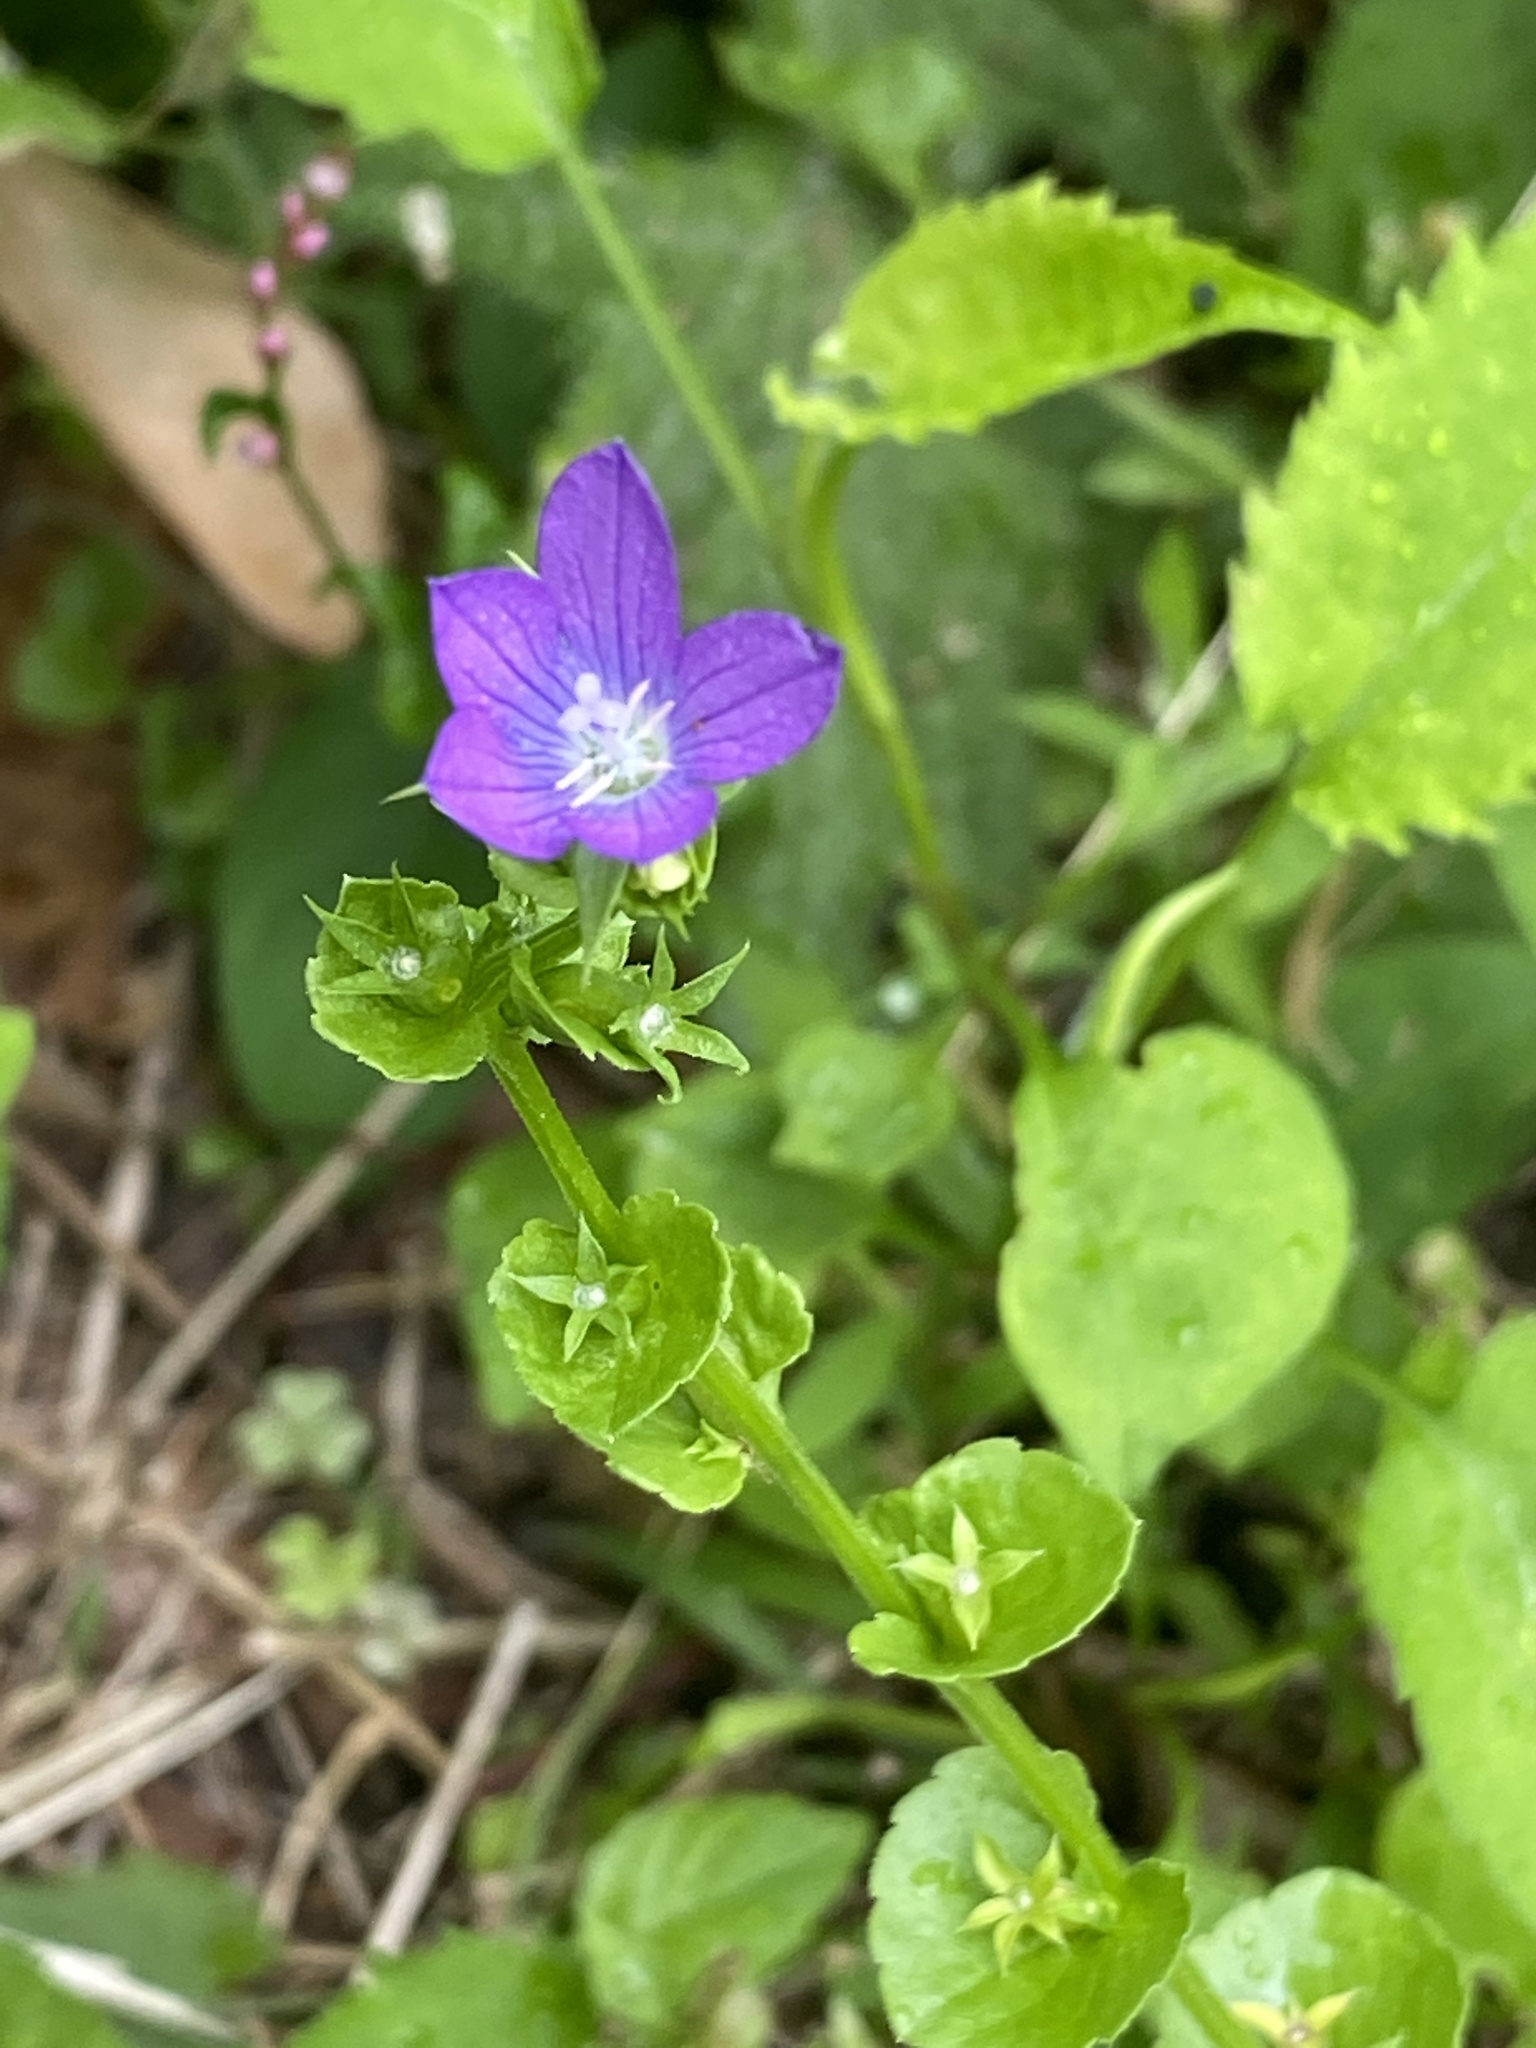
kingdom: Plantae
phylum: Tracheophyta
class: Magnoliopsida
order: Asterales
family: Campanulaceae
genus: Triodanis
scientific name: Triodanis perfoliata
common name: Clasping venus' looking-glass
